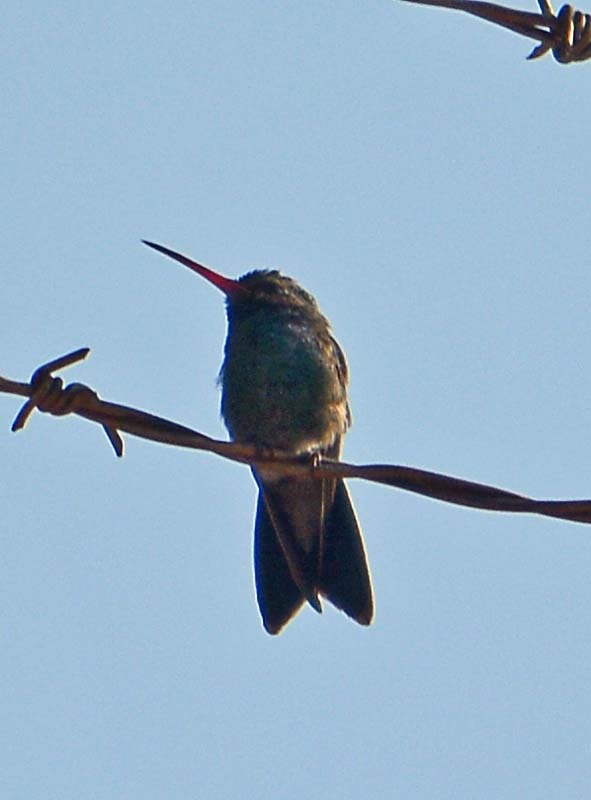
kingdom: Animalia
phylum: Chordata
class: Aves
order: Apodiformes
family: Trochilidae
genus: Cynanthus
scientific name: Cynanthus latirostris
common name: Broad-billed hummingbird
